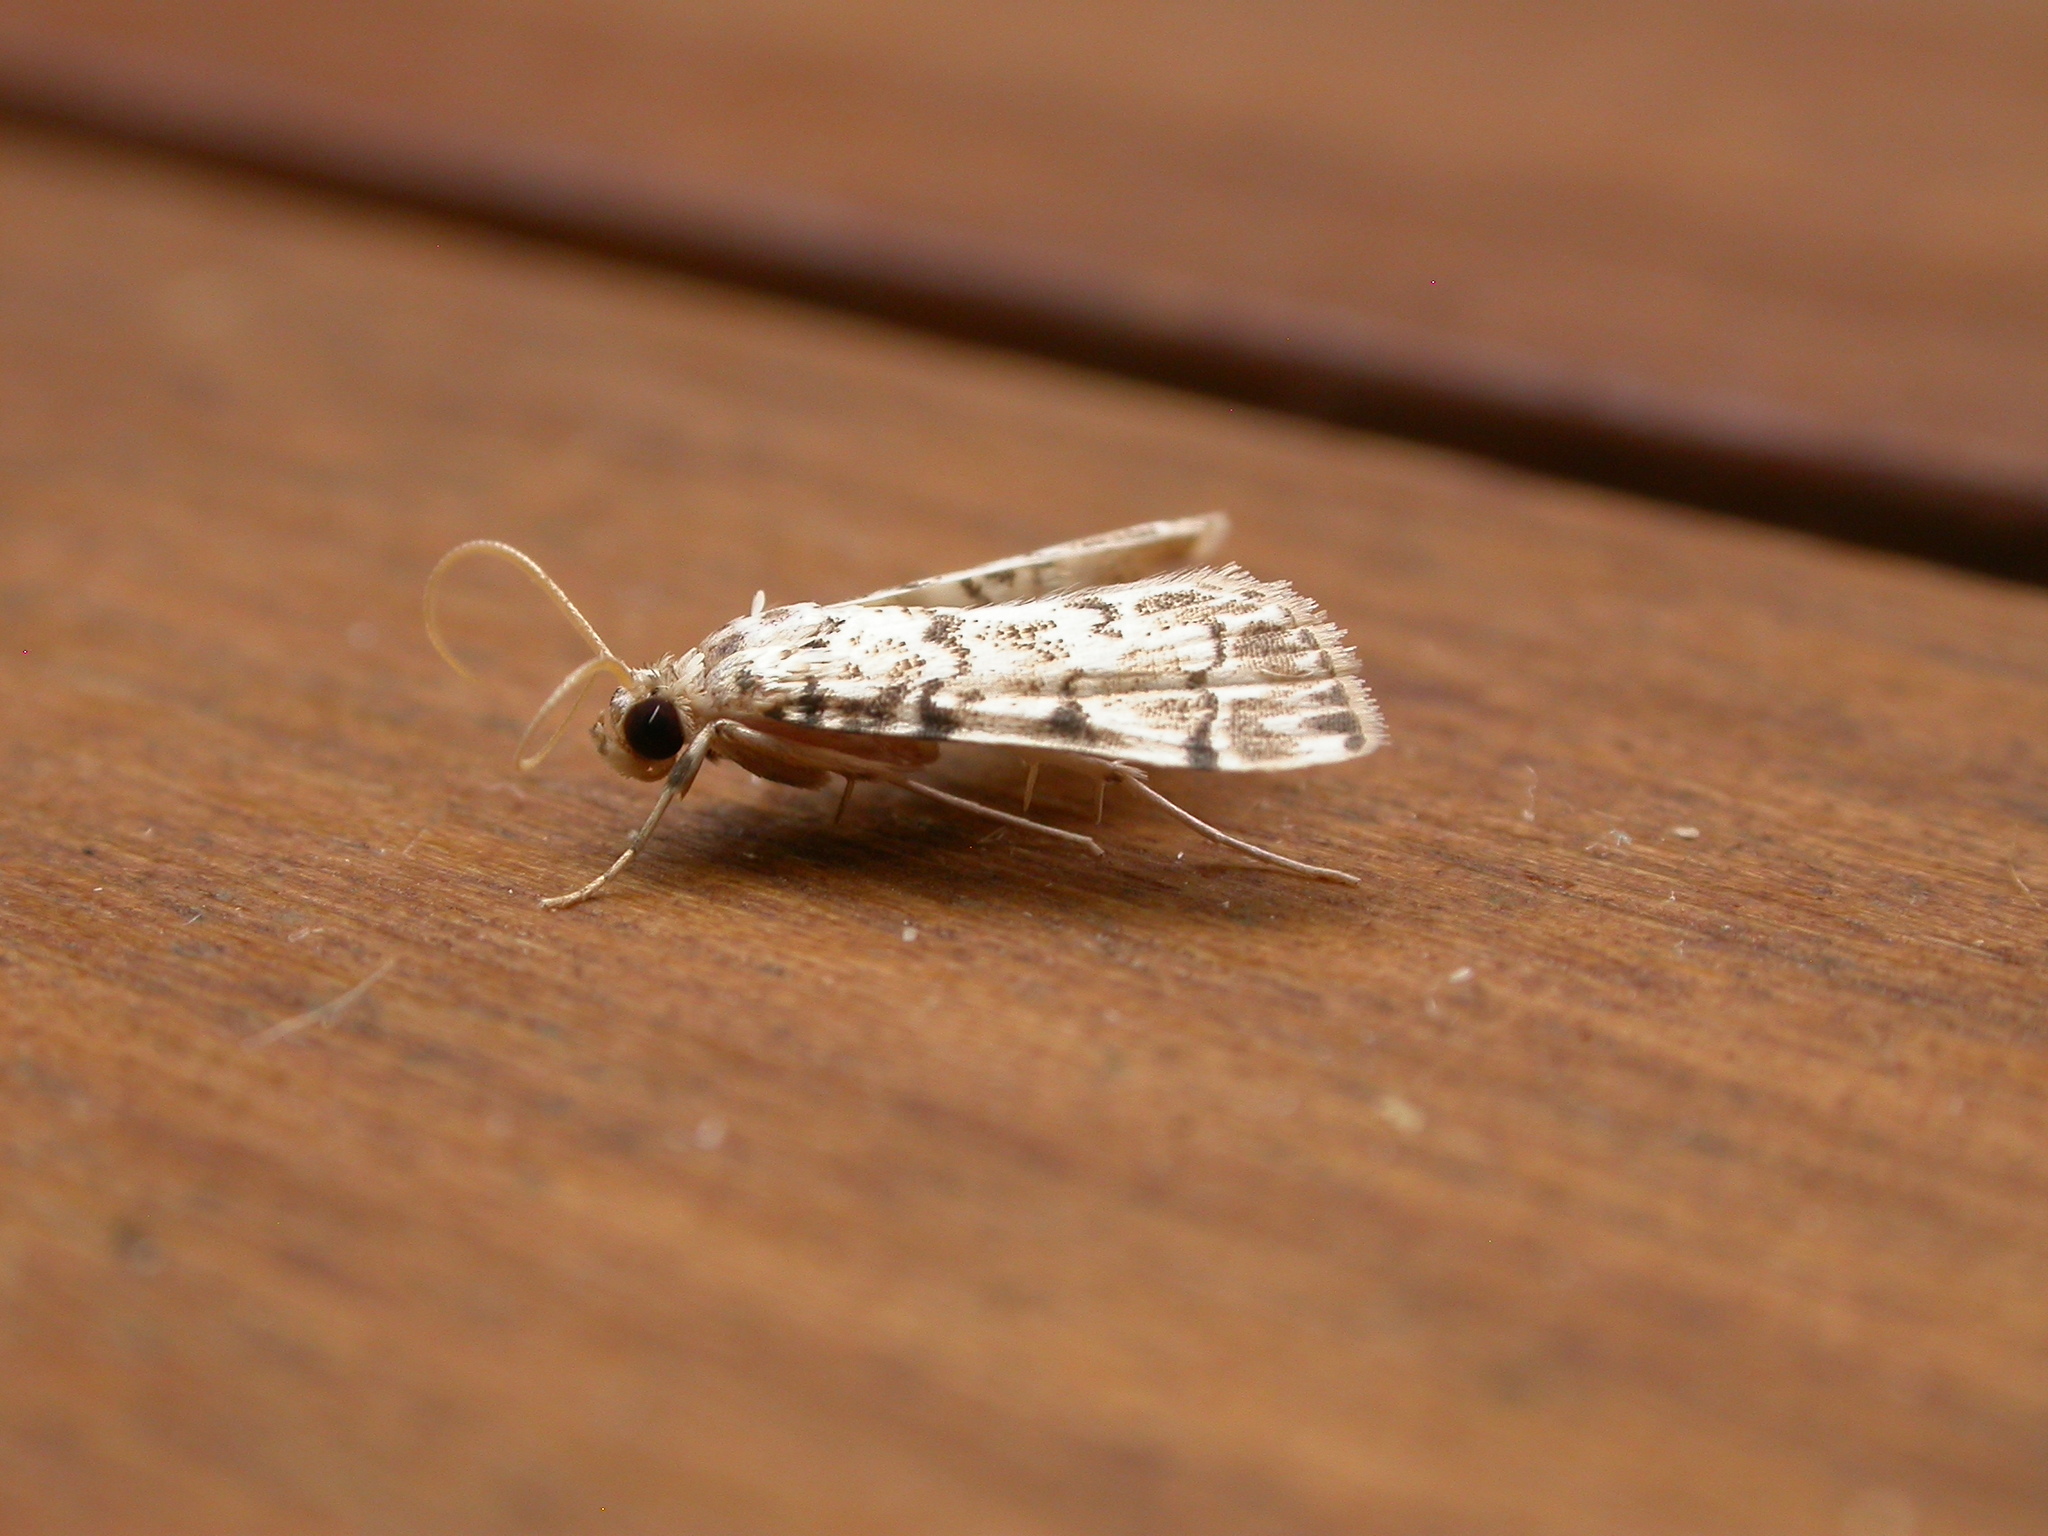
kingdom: Animalia
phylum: Arthropoda
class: Insecta
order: Lepidoptera
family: Crambidae
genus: Metoeca
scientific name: Metoeca foedalis
